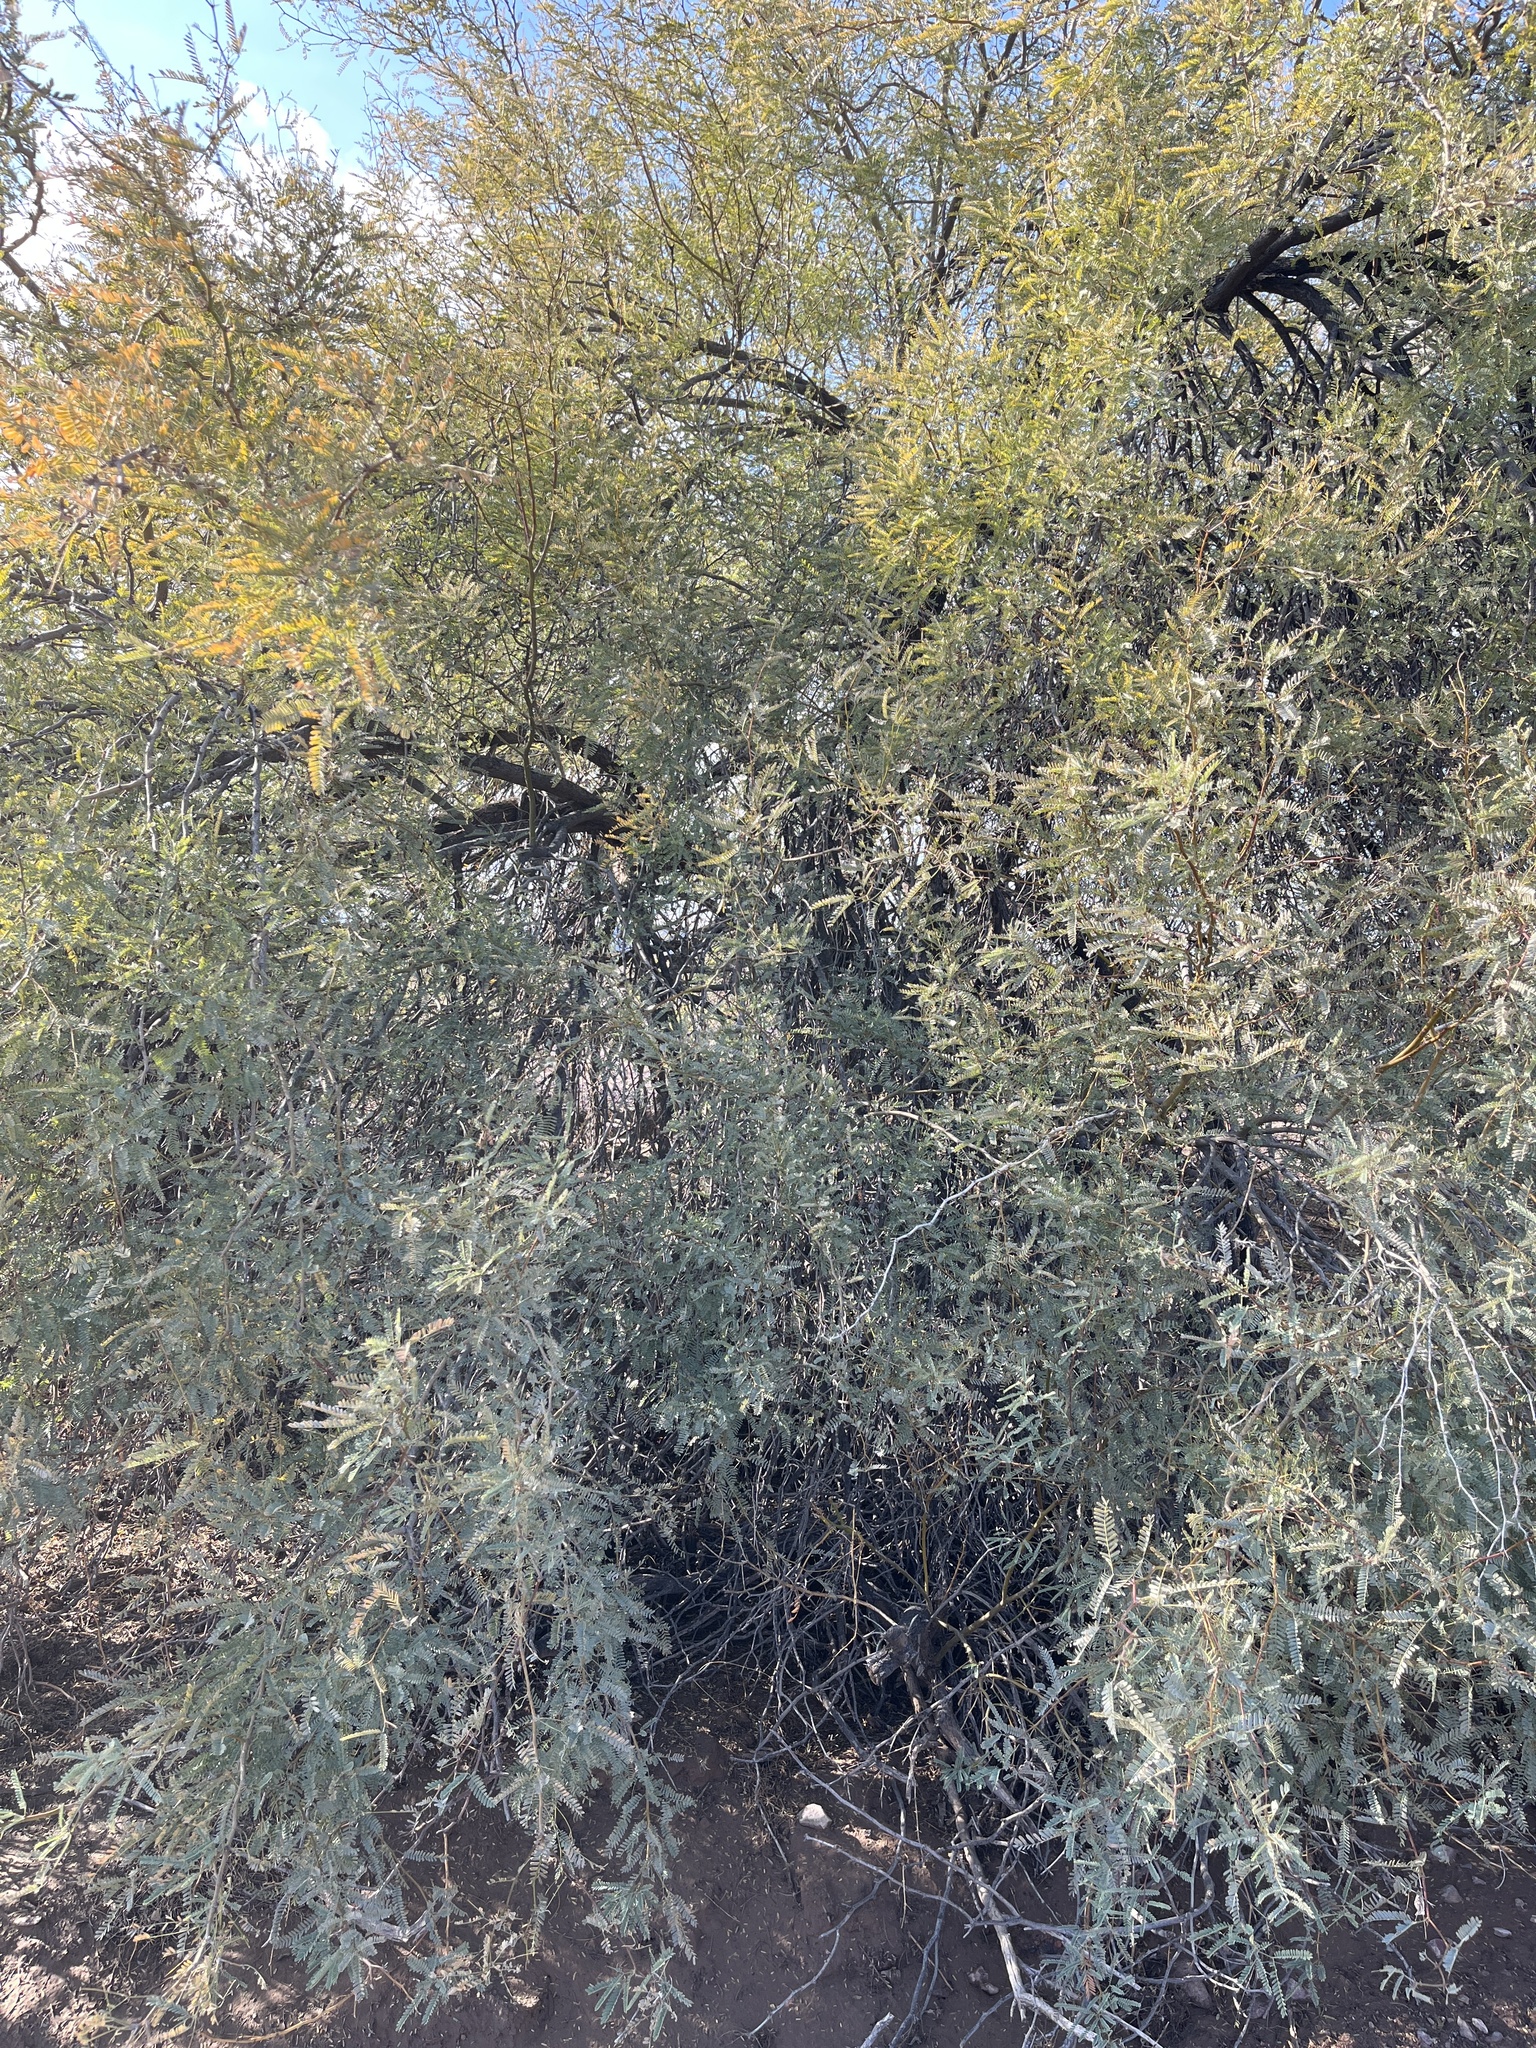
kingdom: Plantae
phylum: Tracheophyta
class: Magnoliopsida
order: Fabales
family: Fabaceae
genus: Prosopis
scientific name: Prosopis velutina
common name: Velvet mesquite
